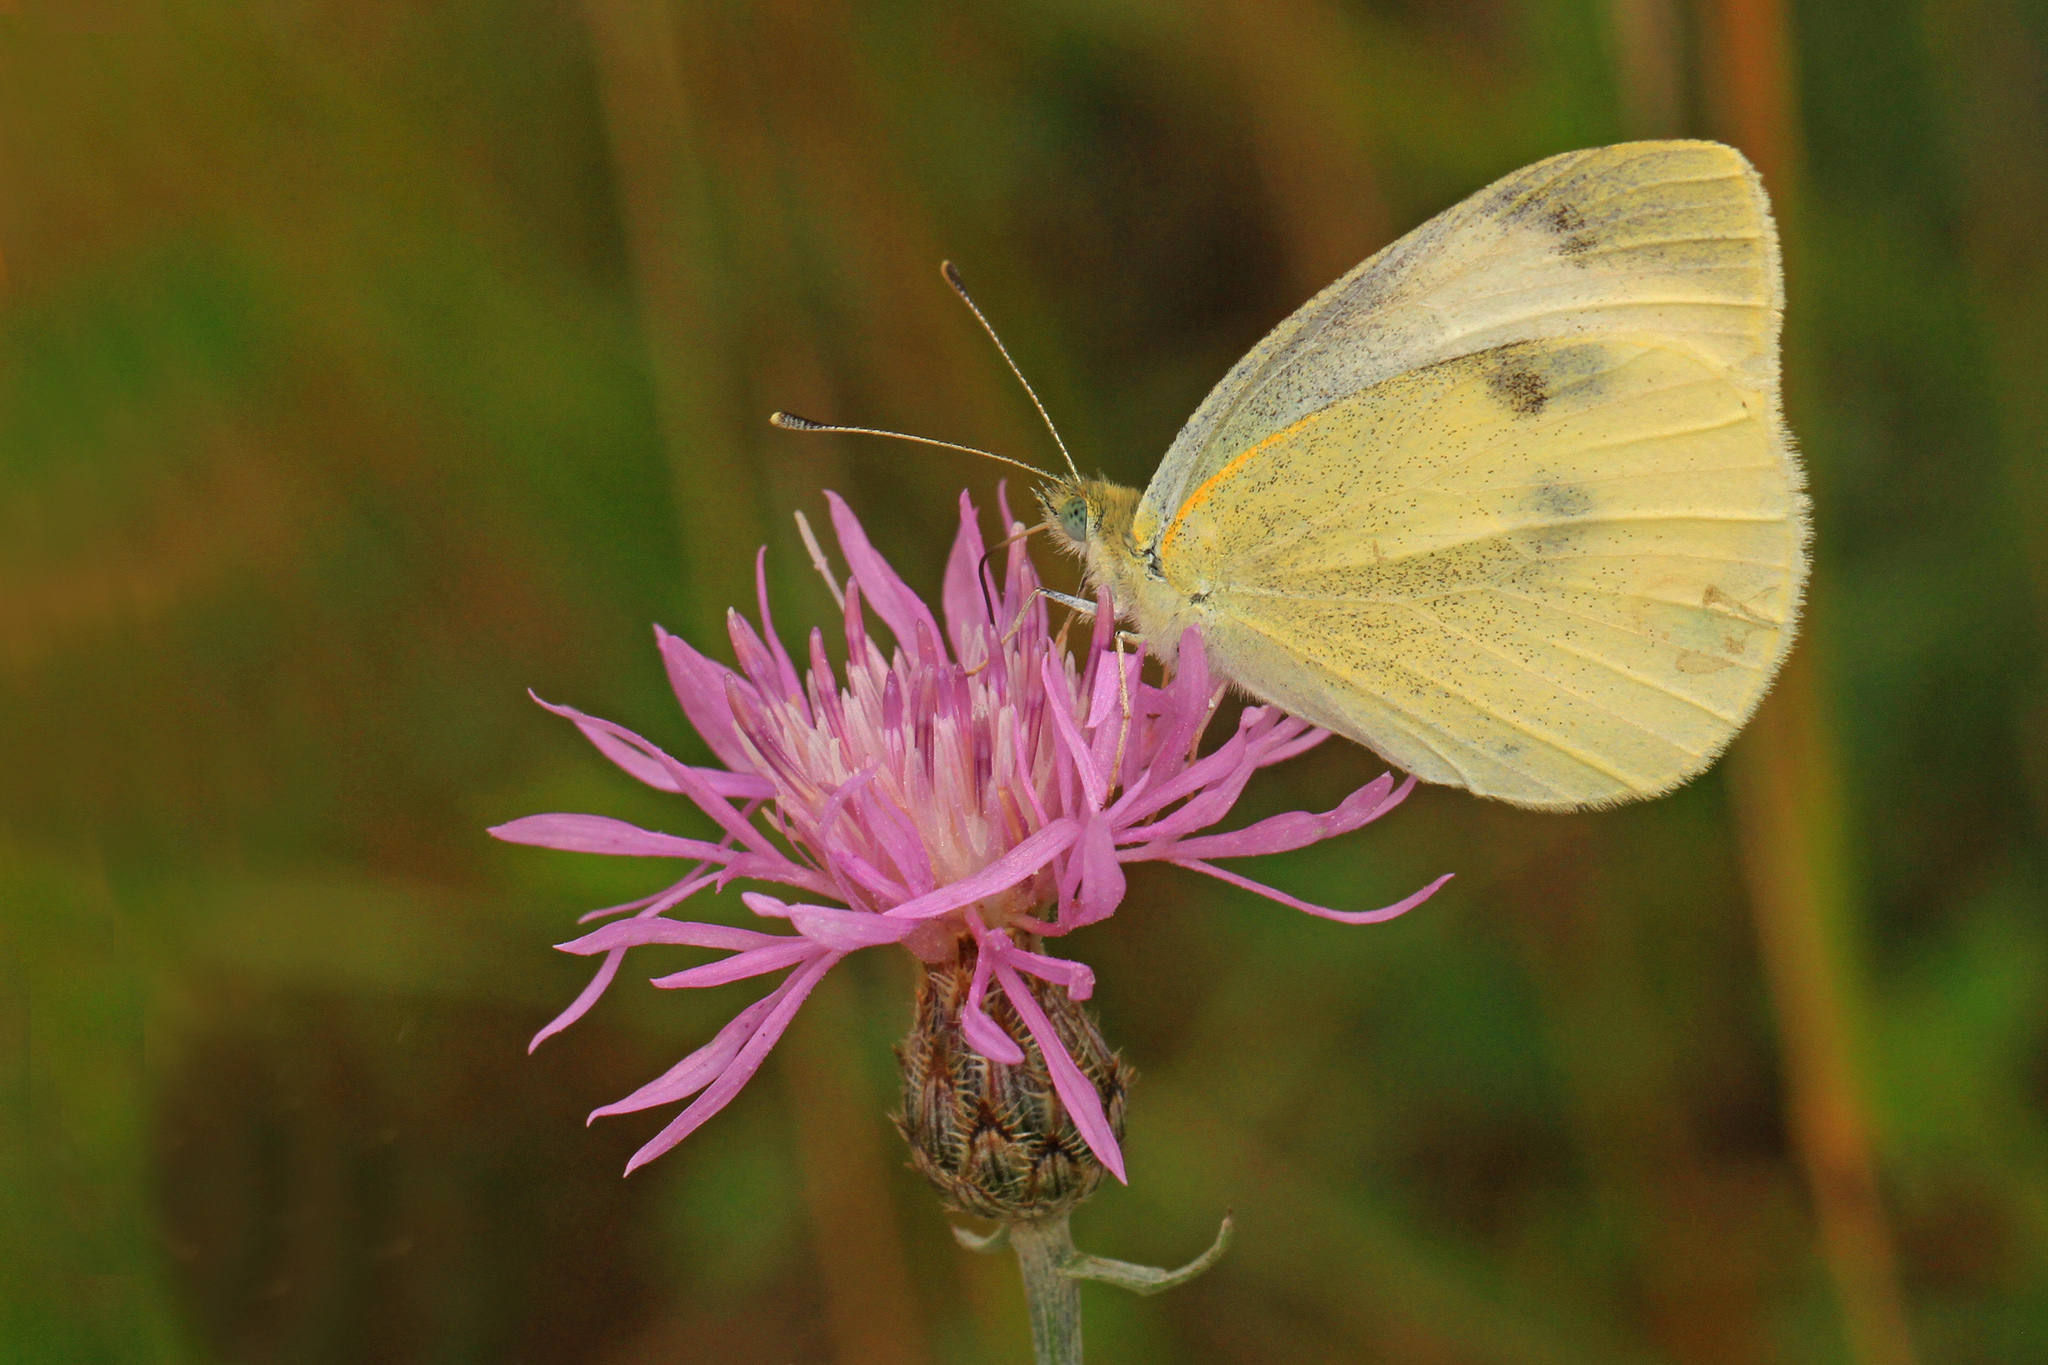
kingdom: Animalia
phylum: Arthropoda
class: Insecta
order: Lepidoptera
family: Pieridae
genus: Pieris
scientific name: Pieris rapae
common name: Small white
